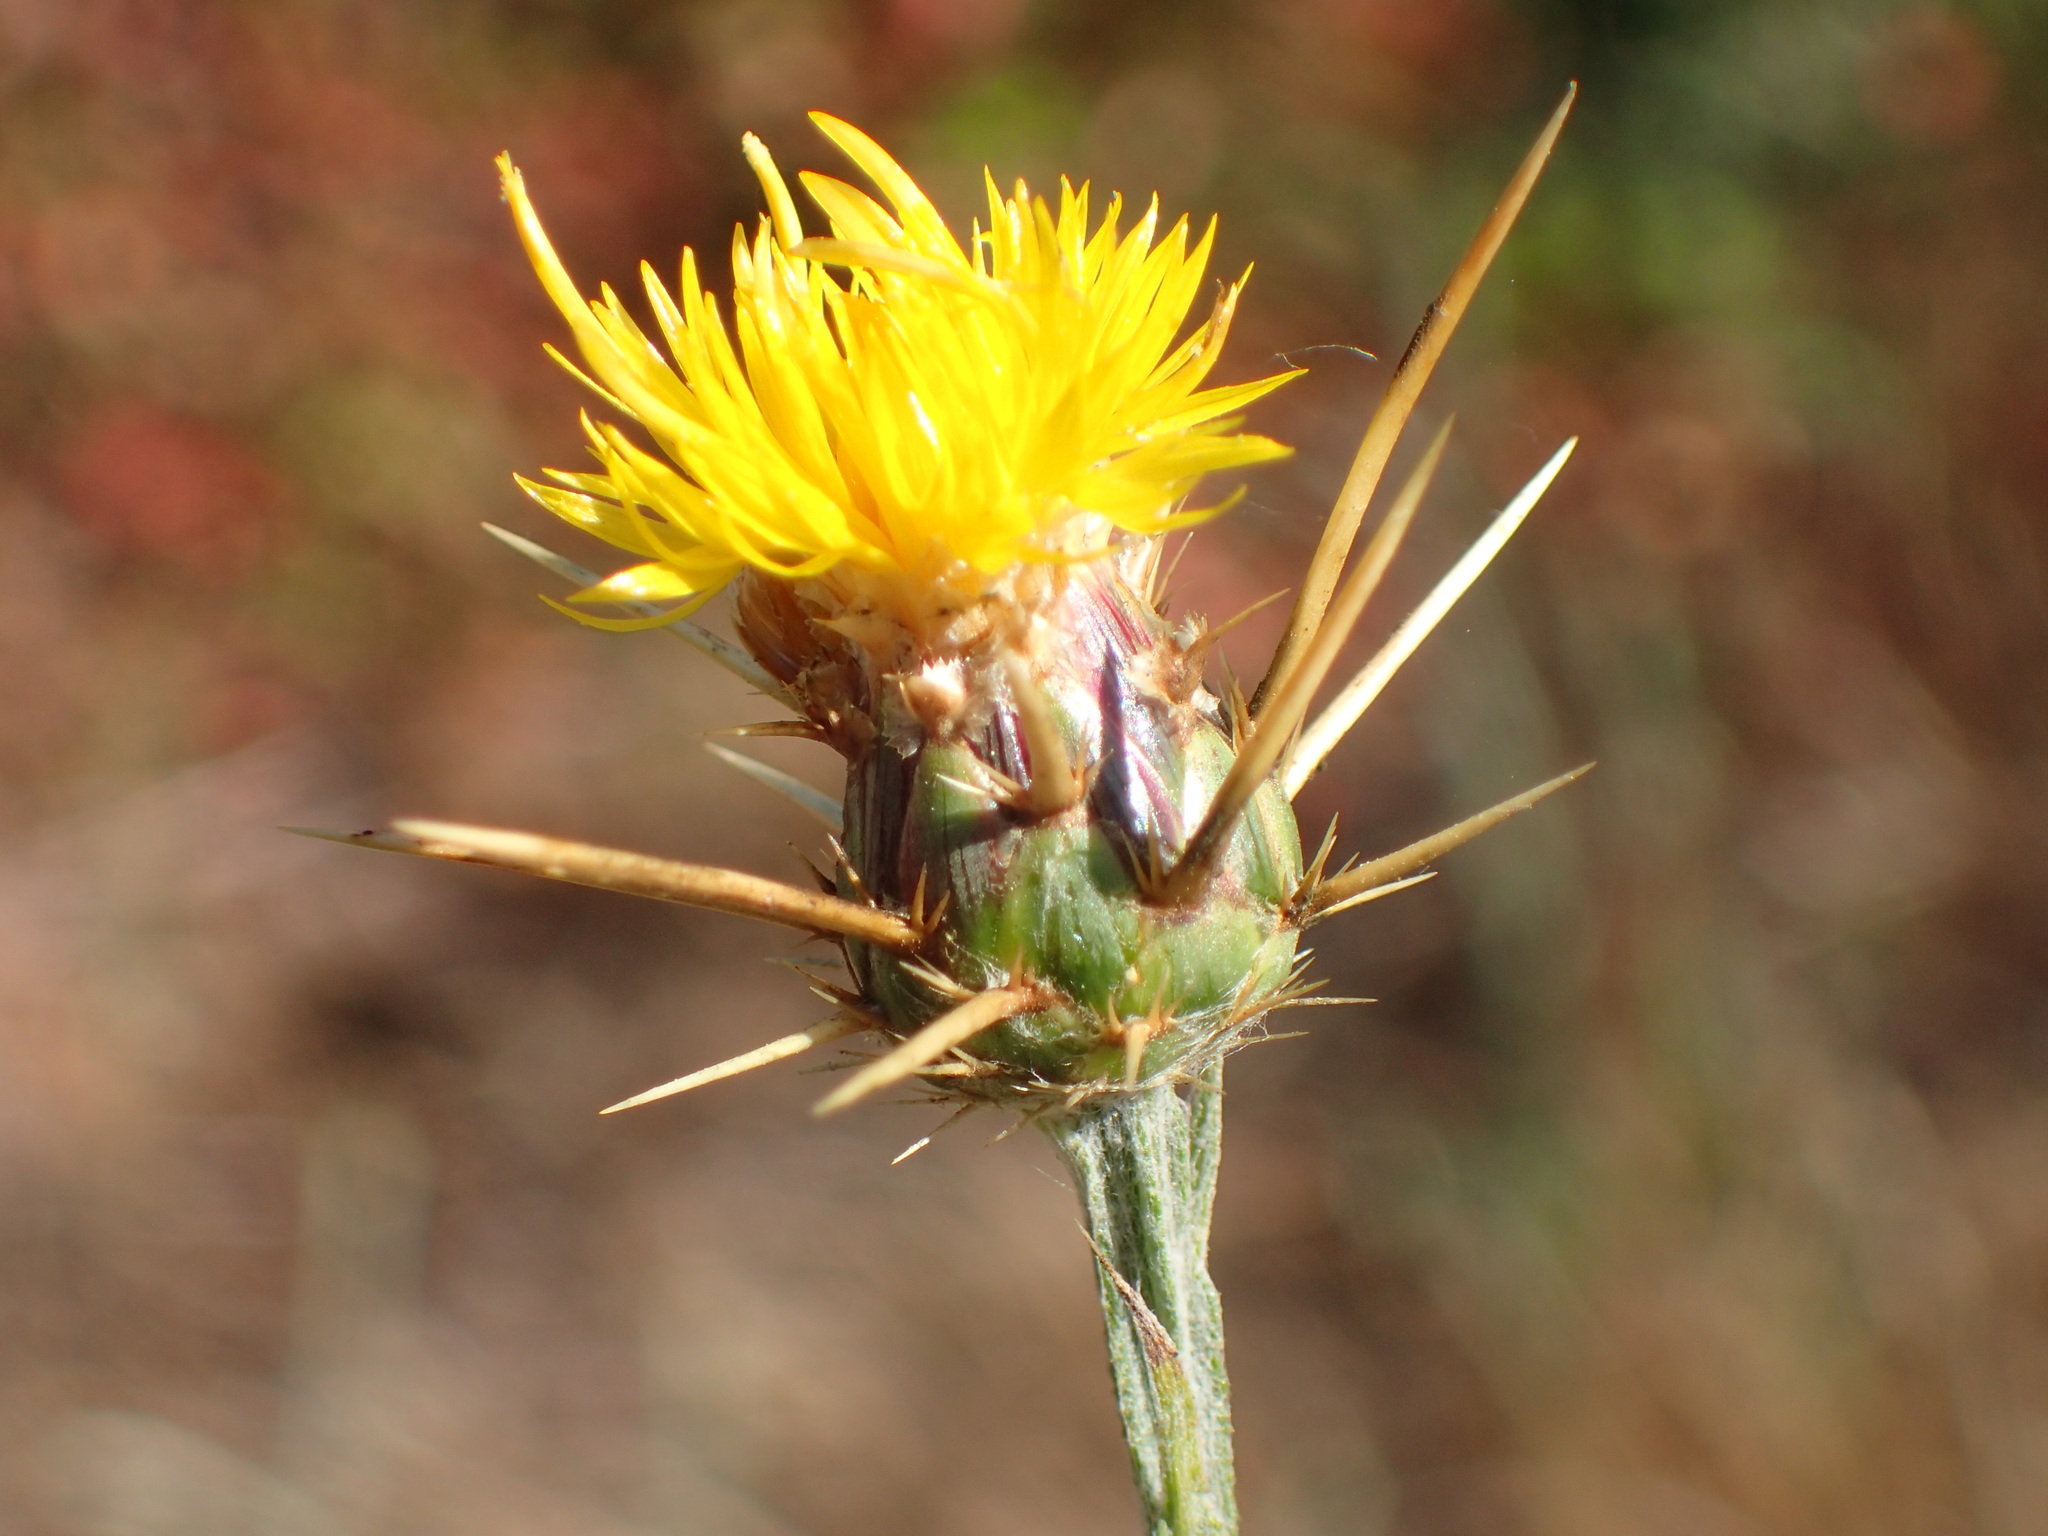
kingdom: Plantae
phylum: Tracheophyta
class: Magnoliopsida
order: Asterales
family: Asteraceae
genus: Centaurea
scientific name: Centaurea solstitialis
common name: Yellow star-thistle
